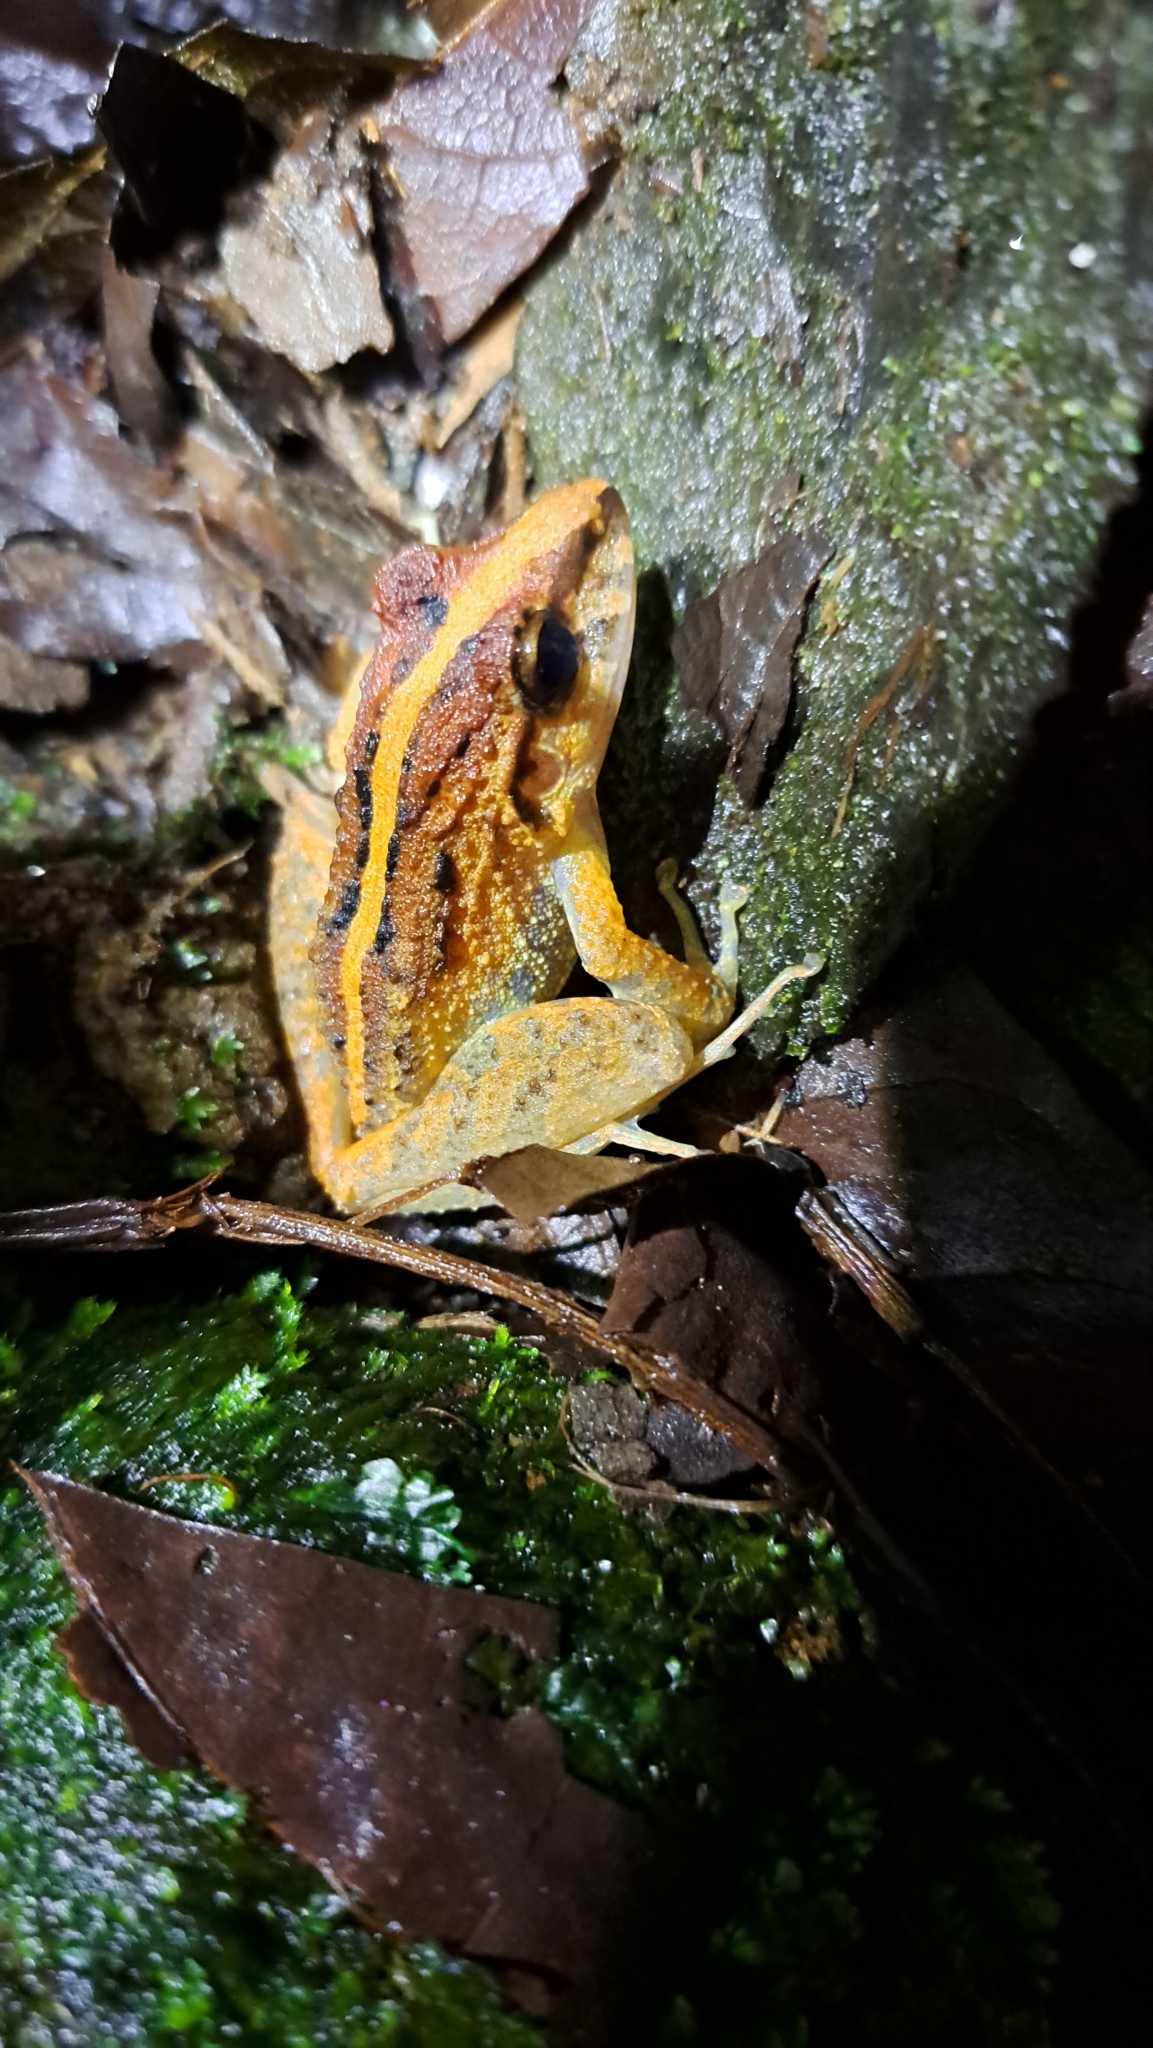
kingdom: Animalia
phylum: Chordata
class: Amphibia
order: Anura
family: Craugastoridae
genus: Craugastor
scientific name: Craugastor fitzingeri
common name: Fitzinger's robber frog
